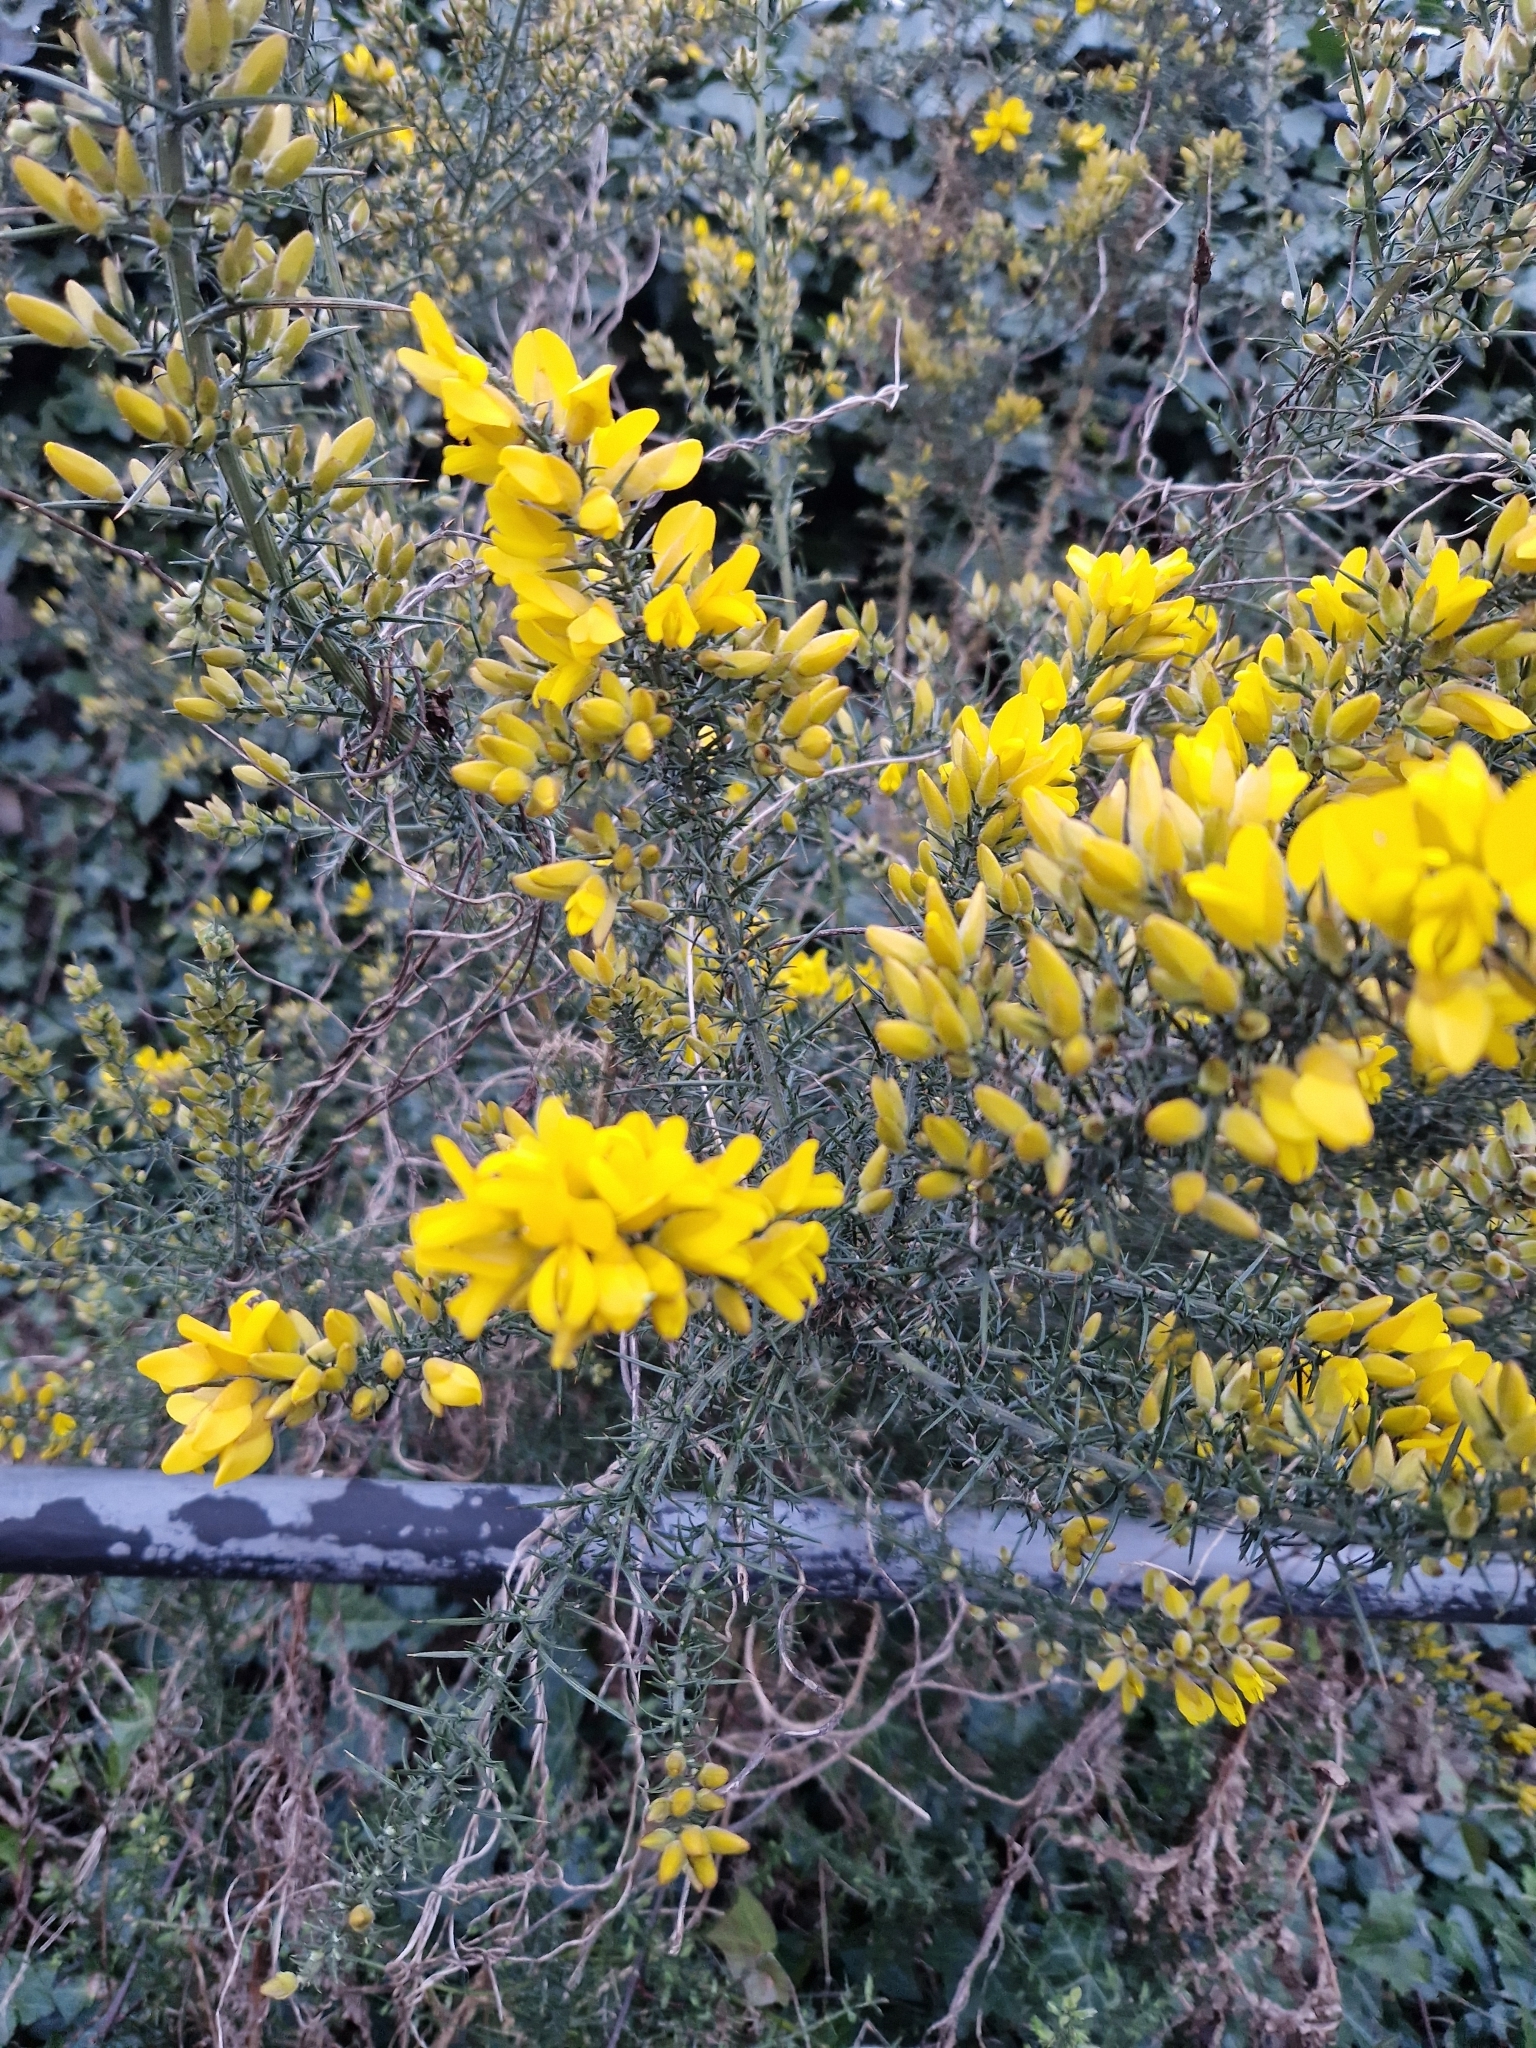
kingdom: Plantae
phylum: Tracheophyta
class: Magnoliopsida
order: Fabales
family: Fabaceae
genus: Ulex
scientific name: Ulex europaeus
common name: Common gorse
